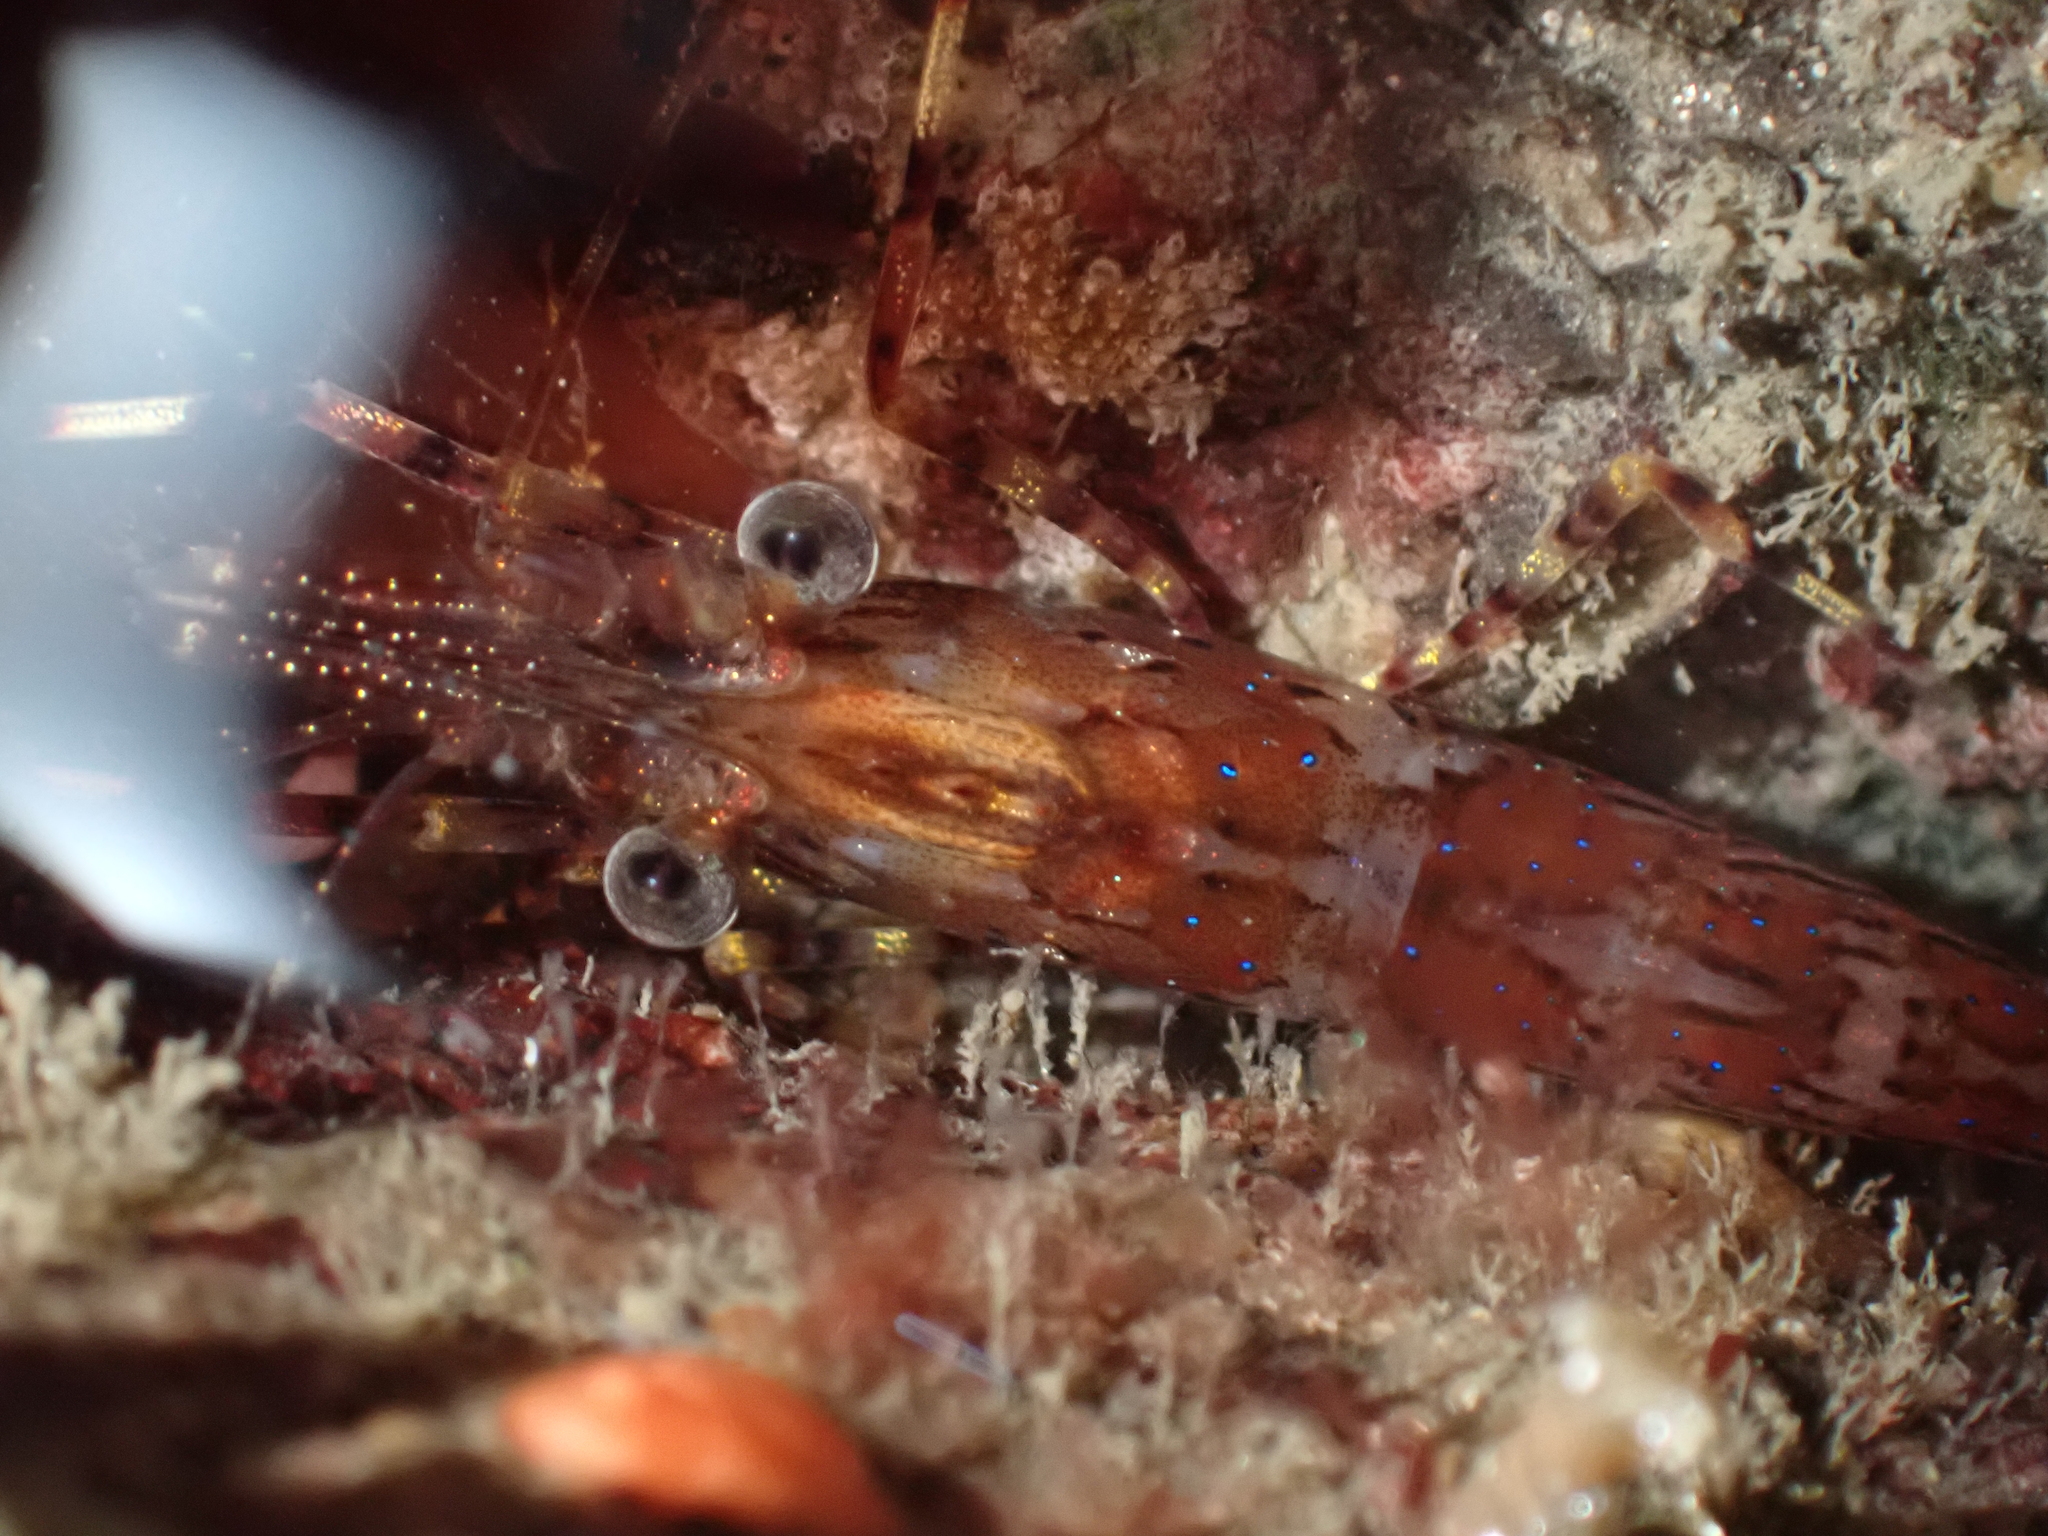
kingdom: Animalia
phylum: Arthropoda
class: Malacostraca
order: Decapoda
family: Pandalidae
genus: Pandalus
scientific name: Pandalus danae
